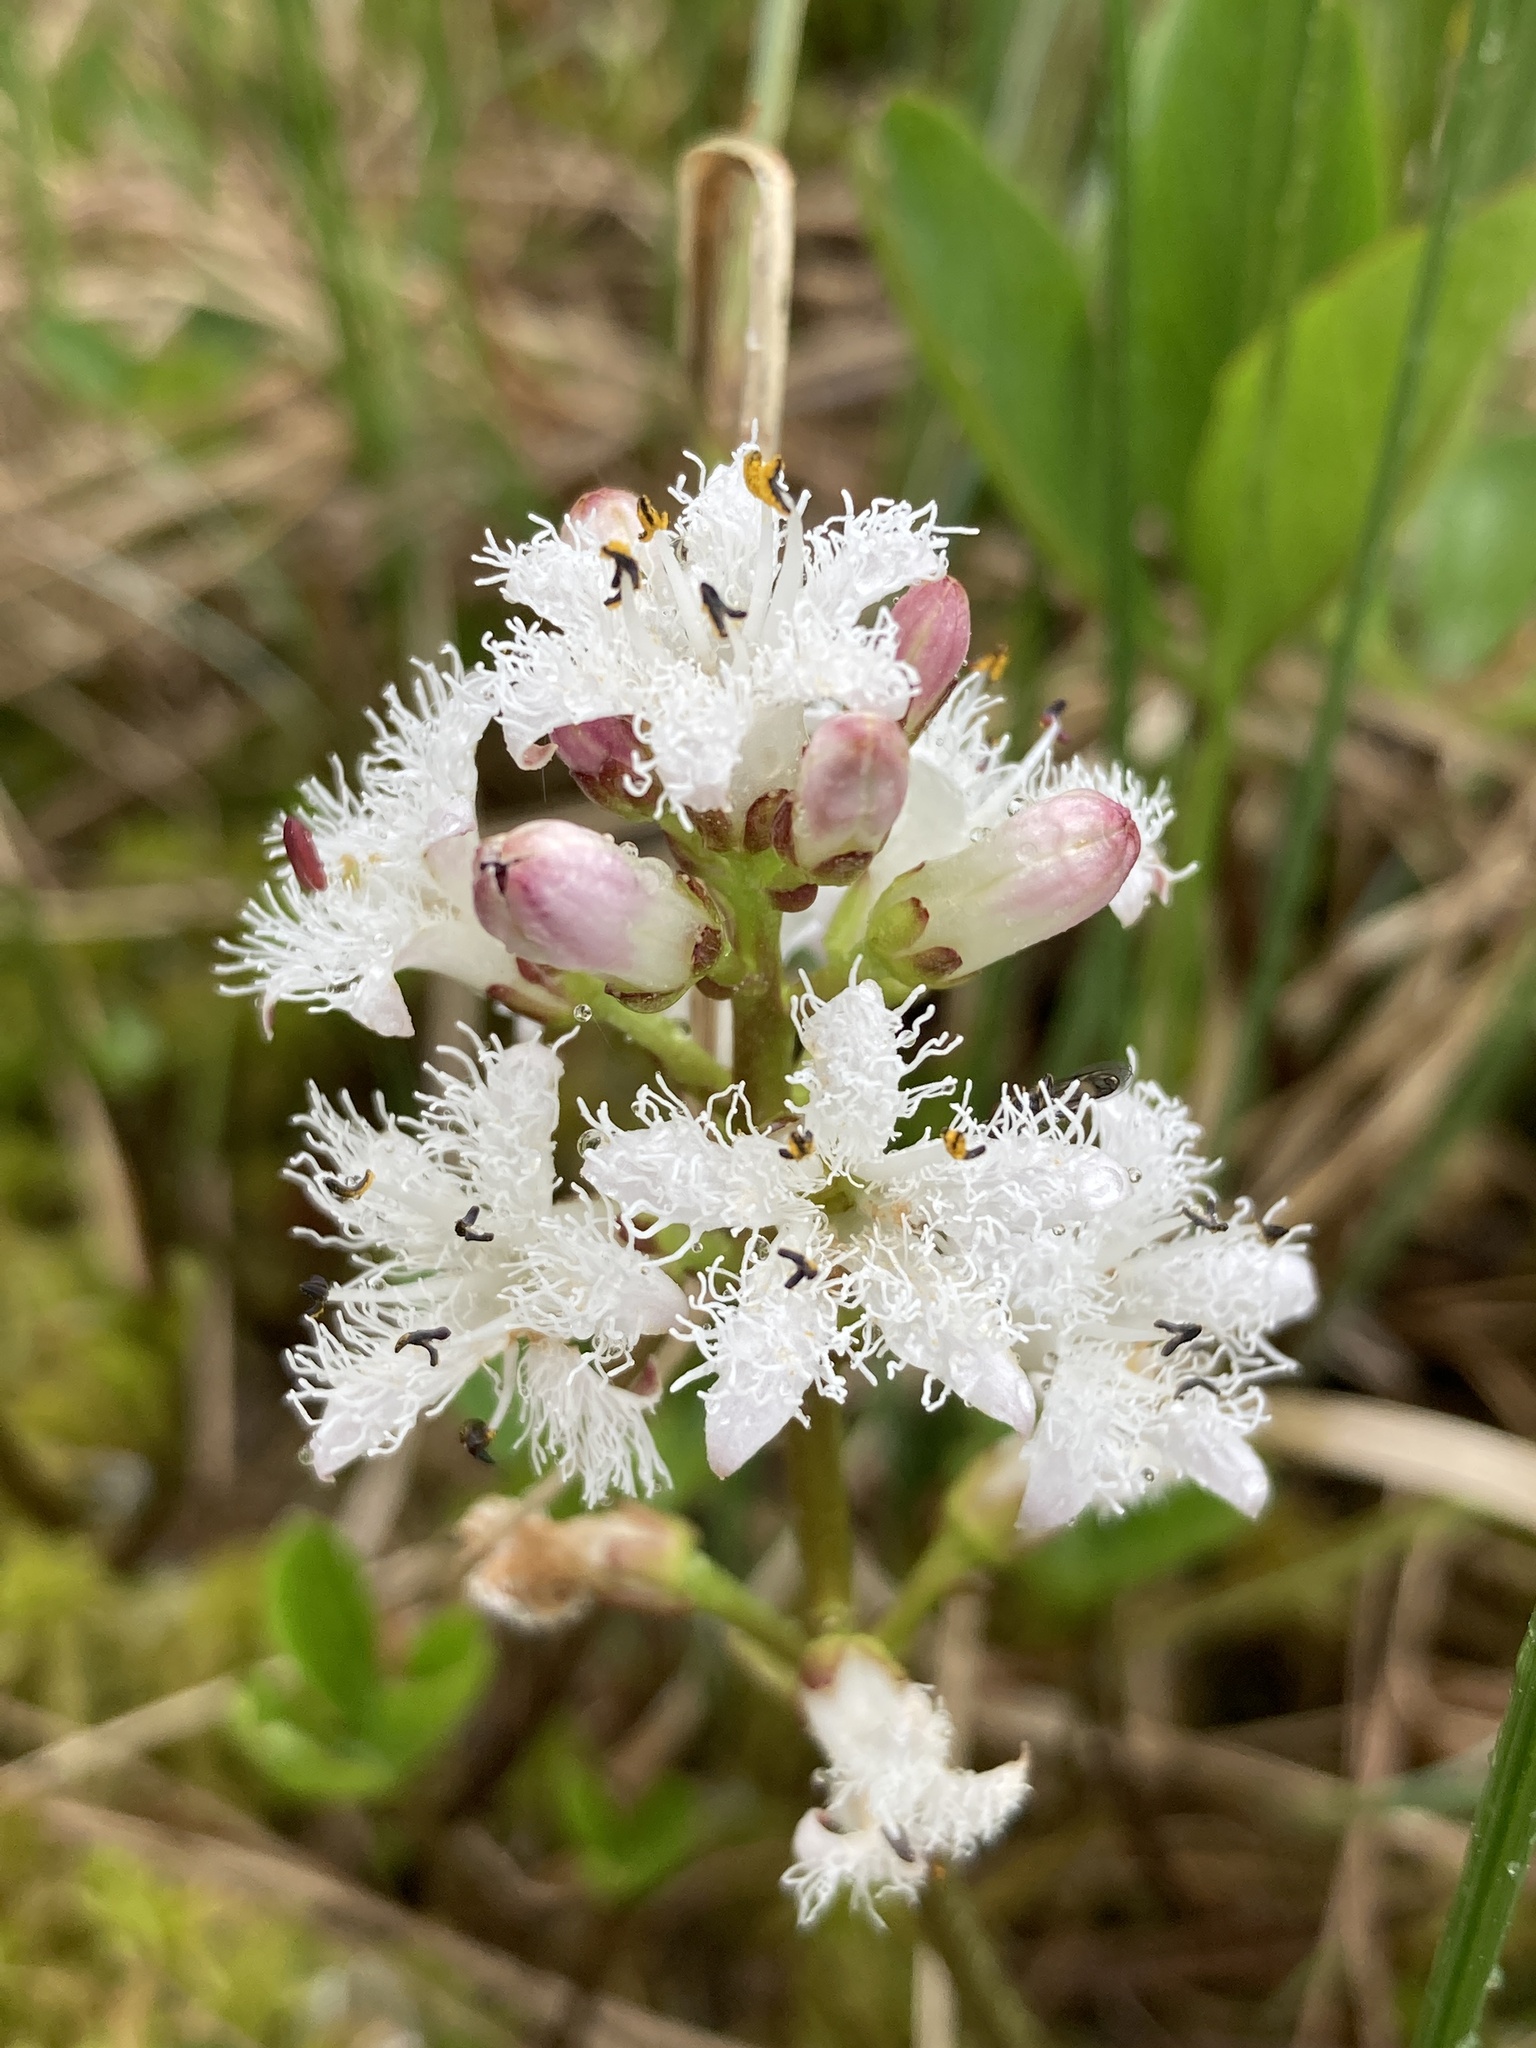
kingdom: Plantae
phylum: Tracheophyta
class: Magnoliopsida
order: Asterales
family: Menyanthaceae
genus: Menyanthes
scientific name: Menyanthes trifoliata
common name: Bogbean
